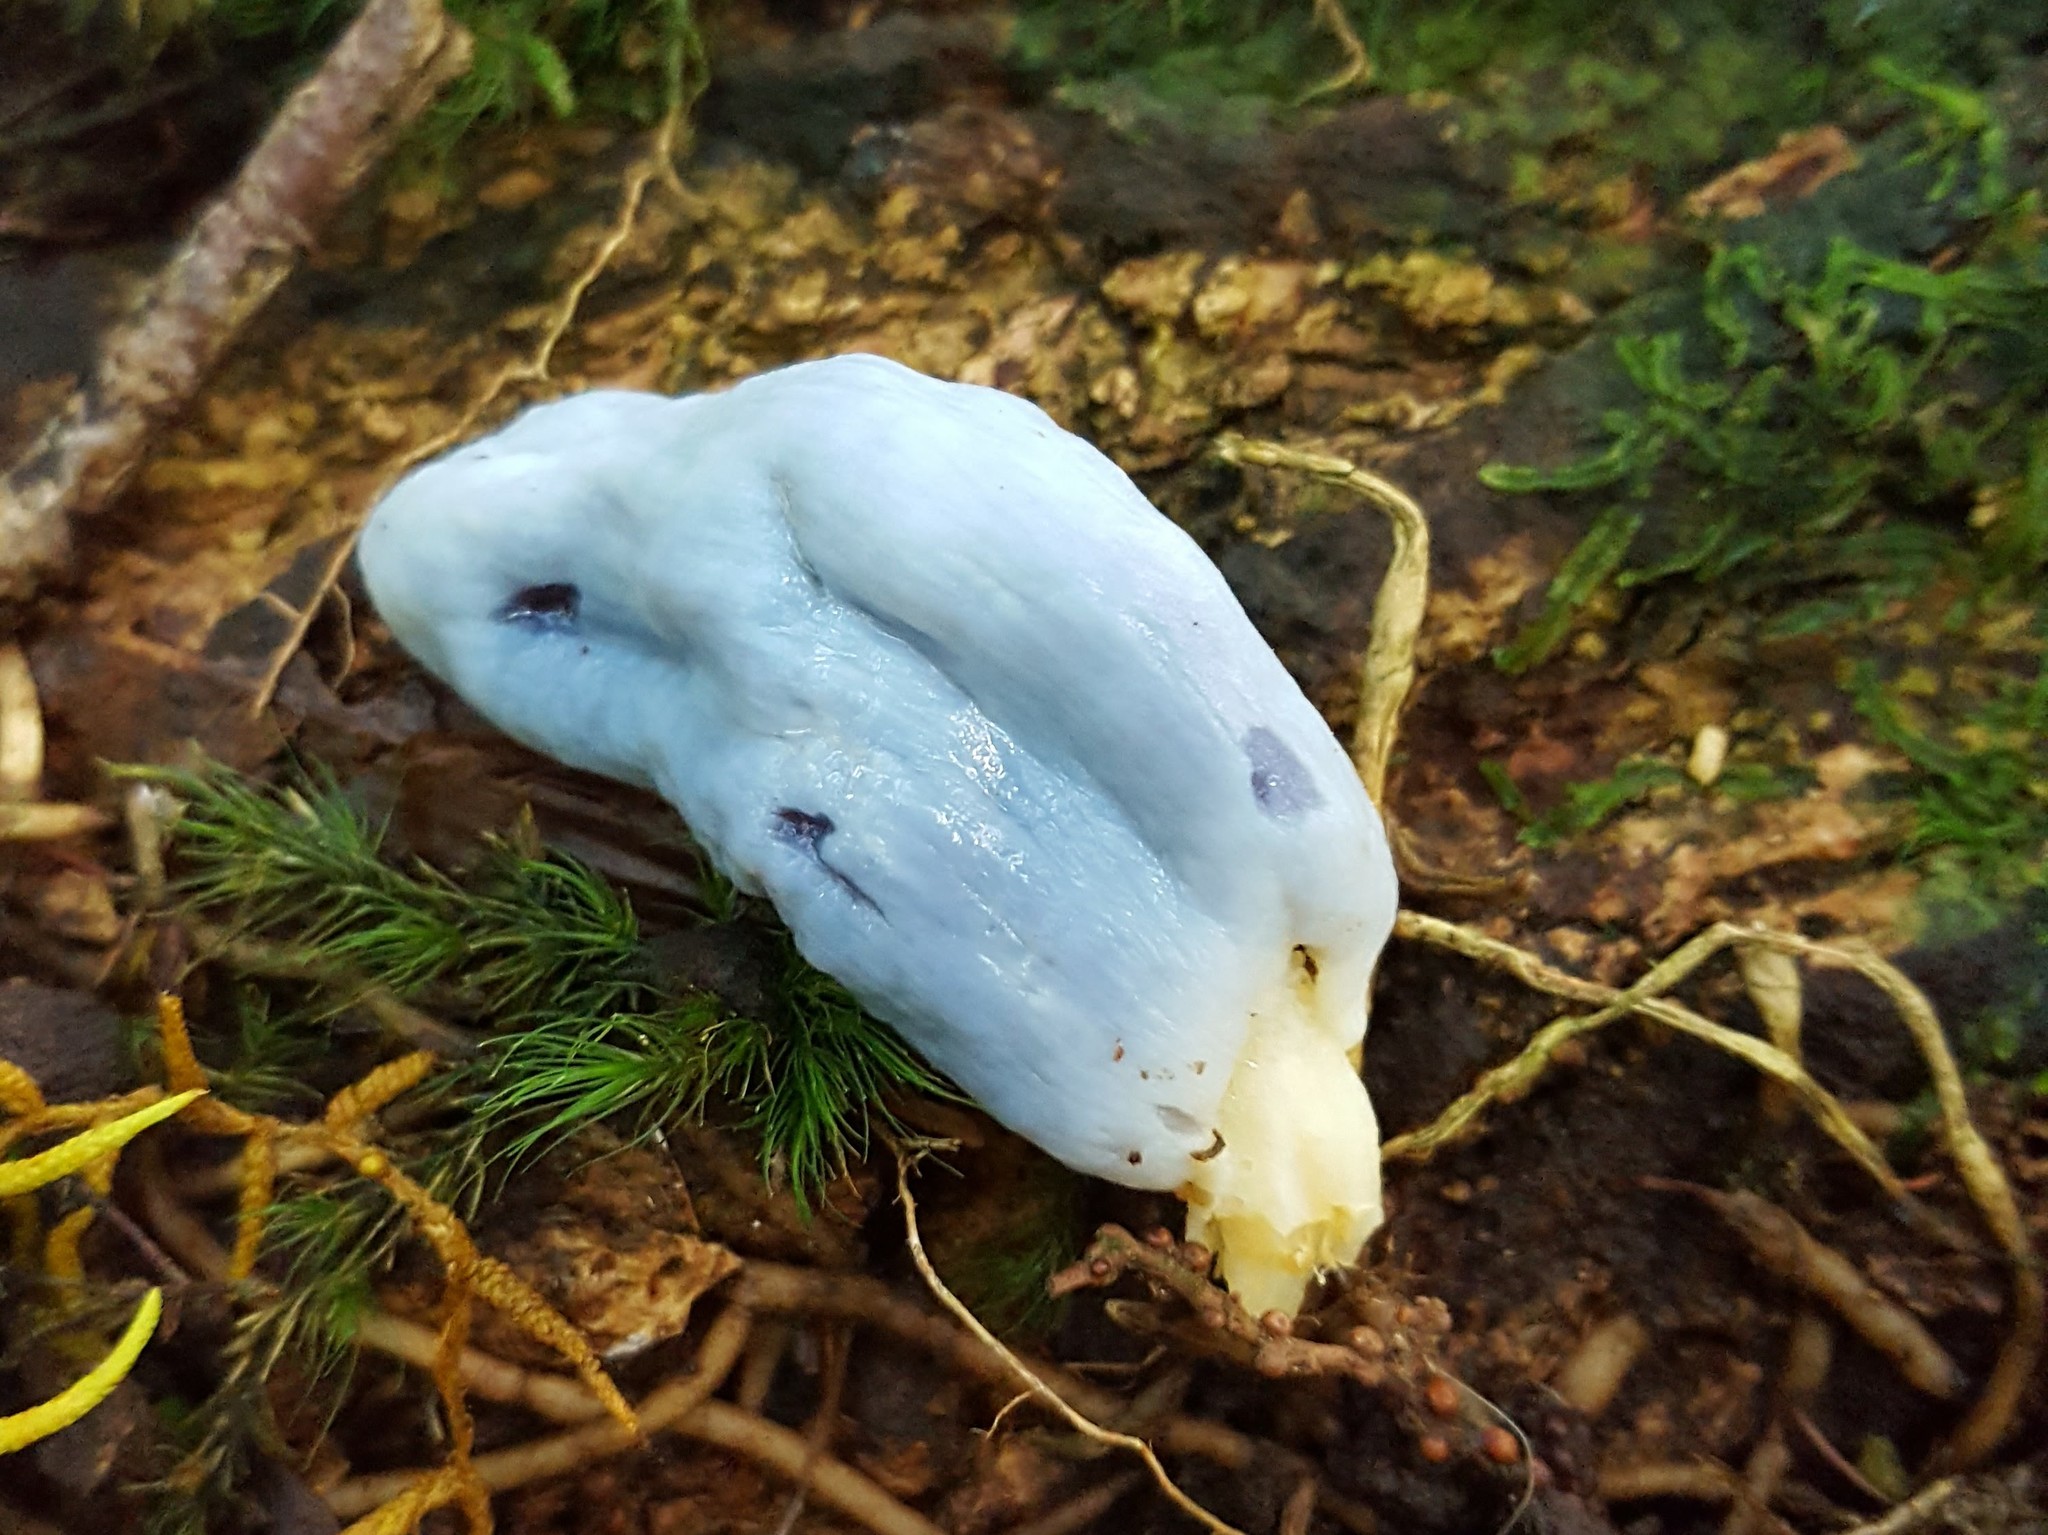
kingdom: Fungi
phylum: Basidiomycota
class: Agaricomycetes
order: Agaricales
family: Agaricaceae
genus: Clavogaster
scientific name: Clavogaster virescens
